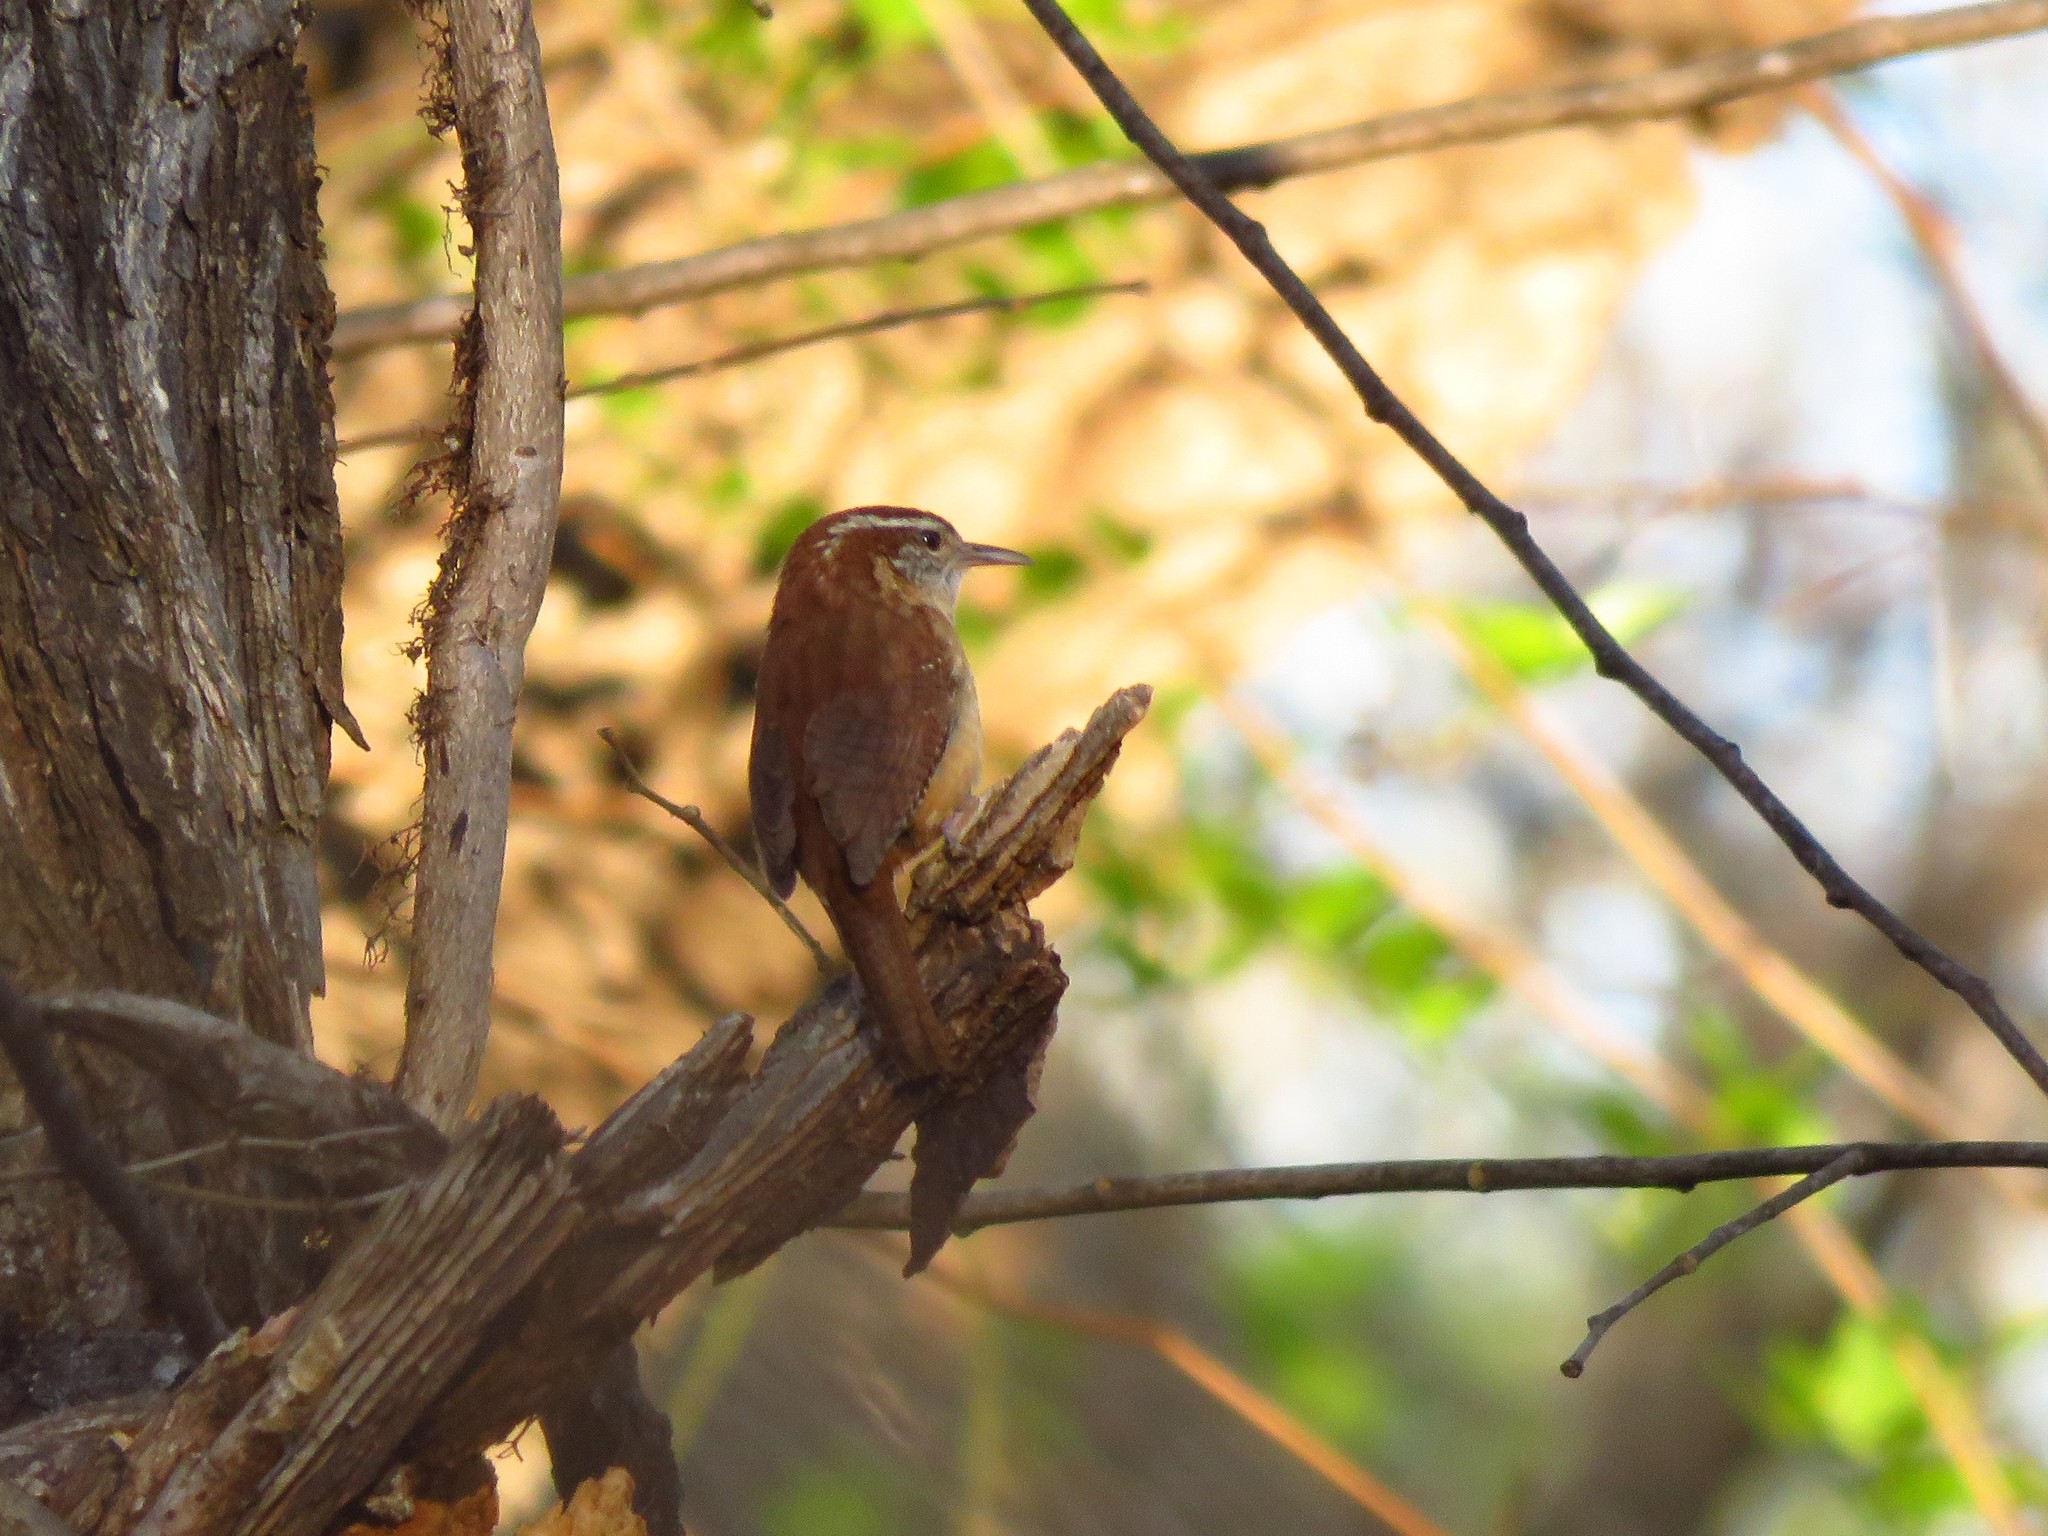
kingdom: Animalia
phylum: Chordata
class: Aves
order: Passeriformes
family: Troglodytidae
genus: Thryothorus
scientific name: Thryothorus ludovicianus
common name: Carolina wren
